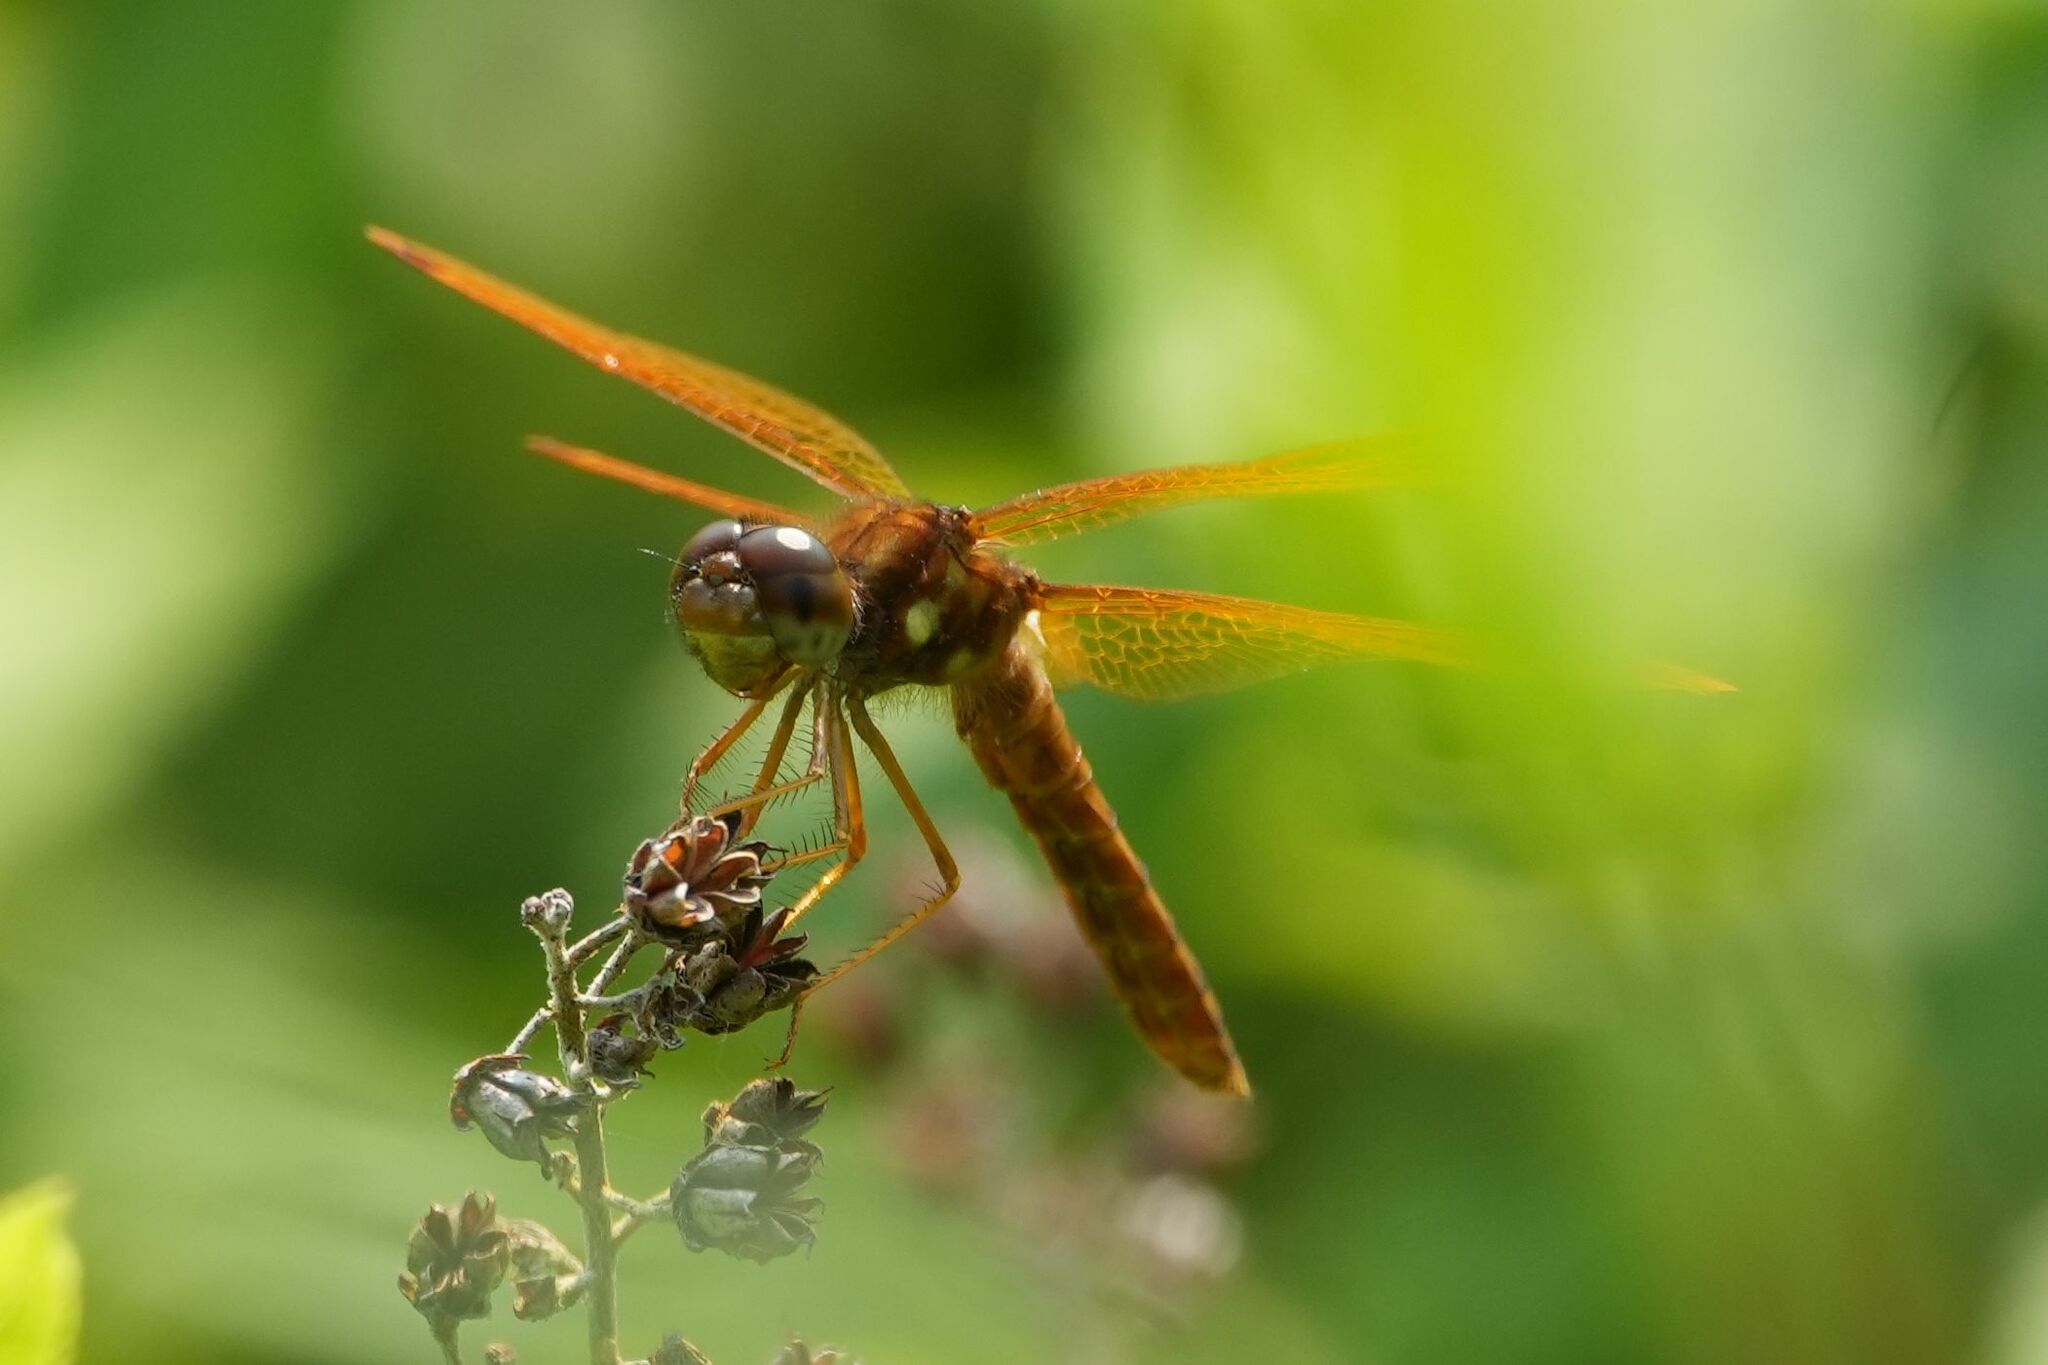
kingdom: Animalia
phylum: Arthropoda
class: Insecta
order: Odonata
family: Libellulidae
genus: Perithemis
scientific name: Perithemis tenera
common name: Eastern amberwing
